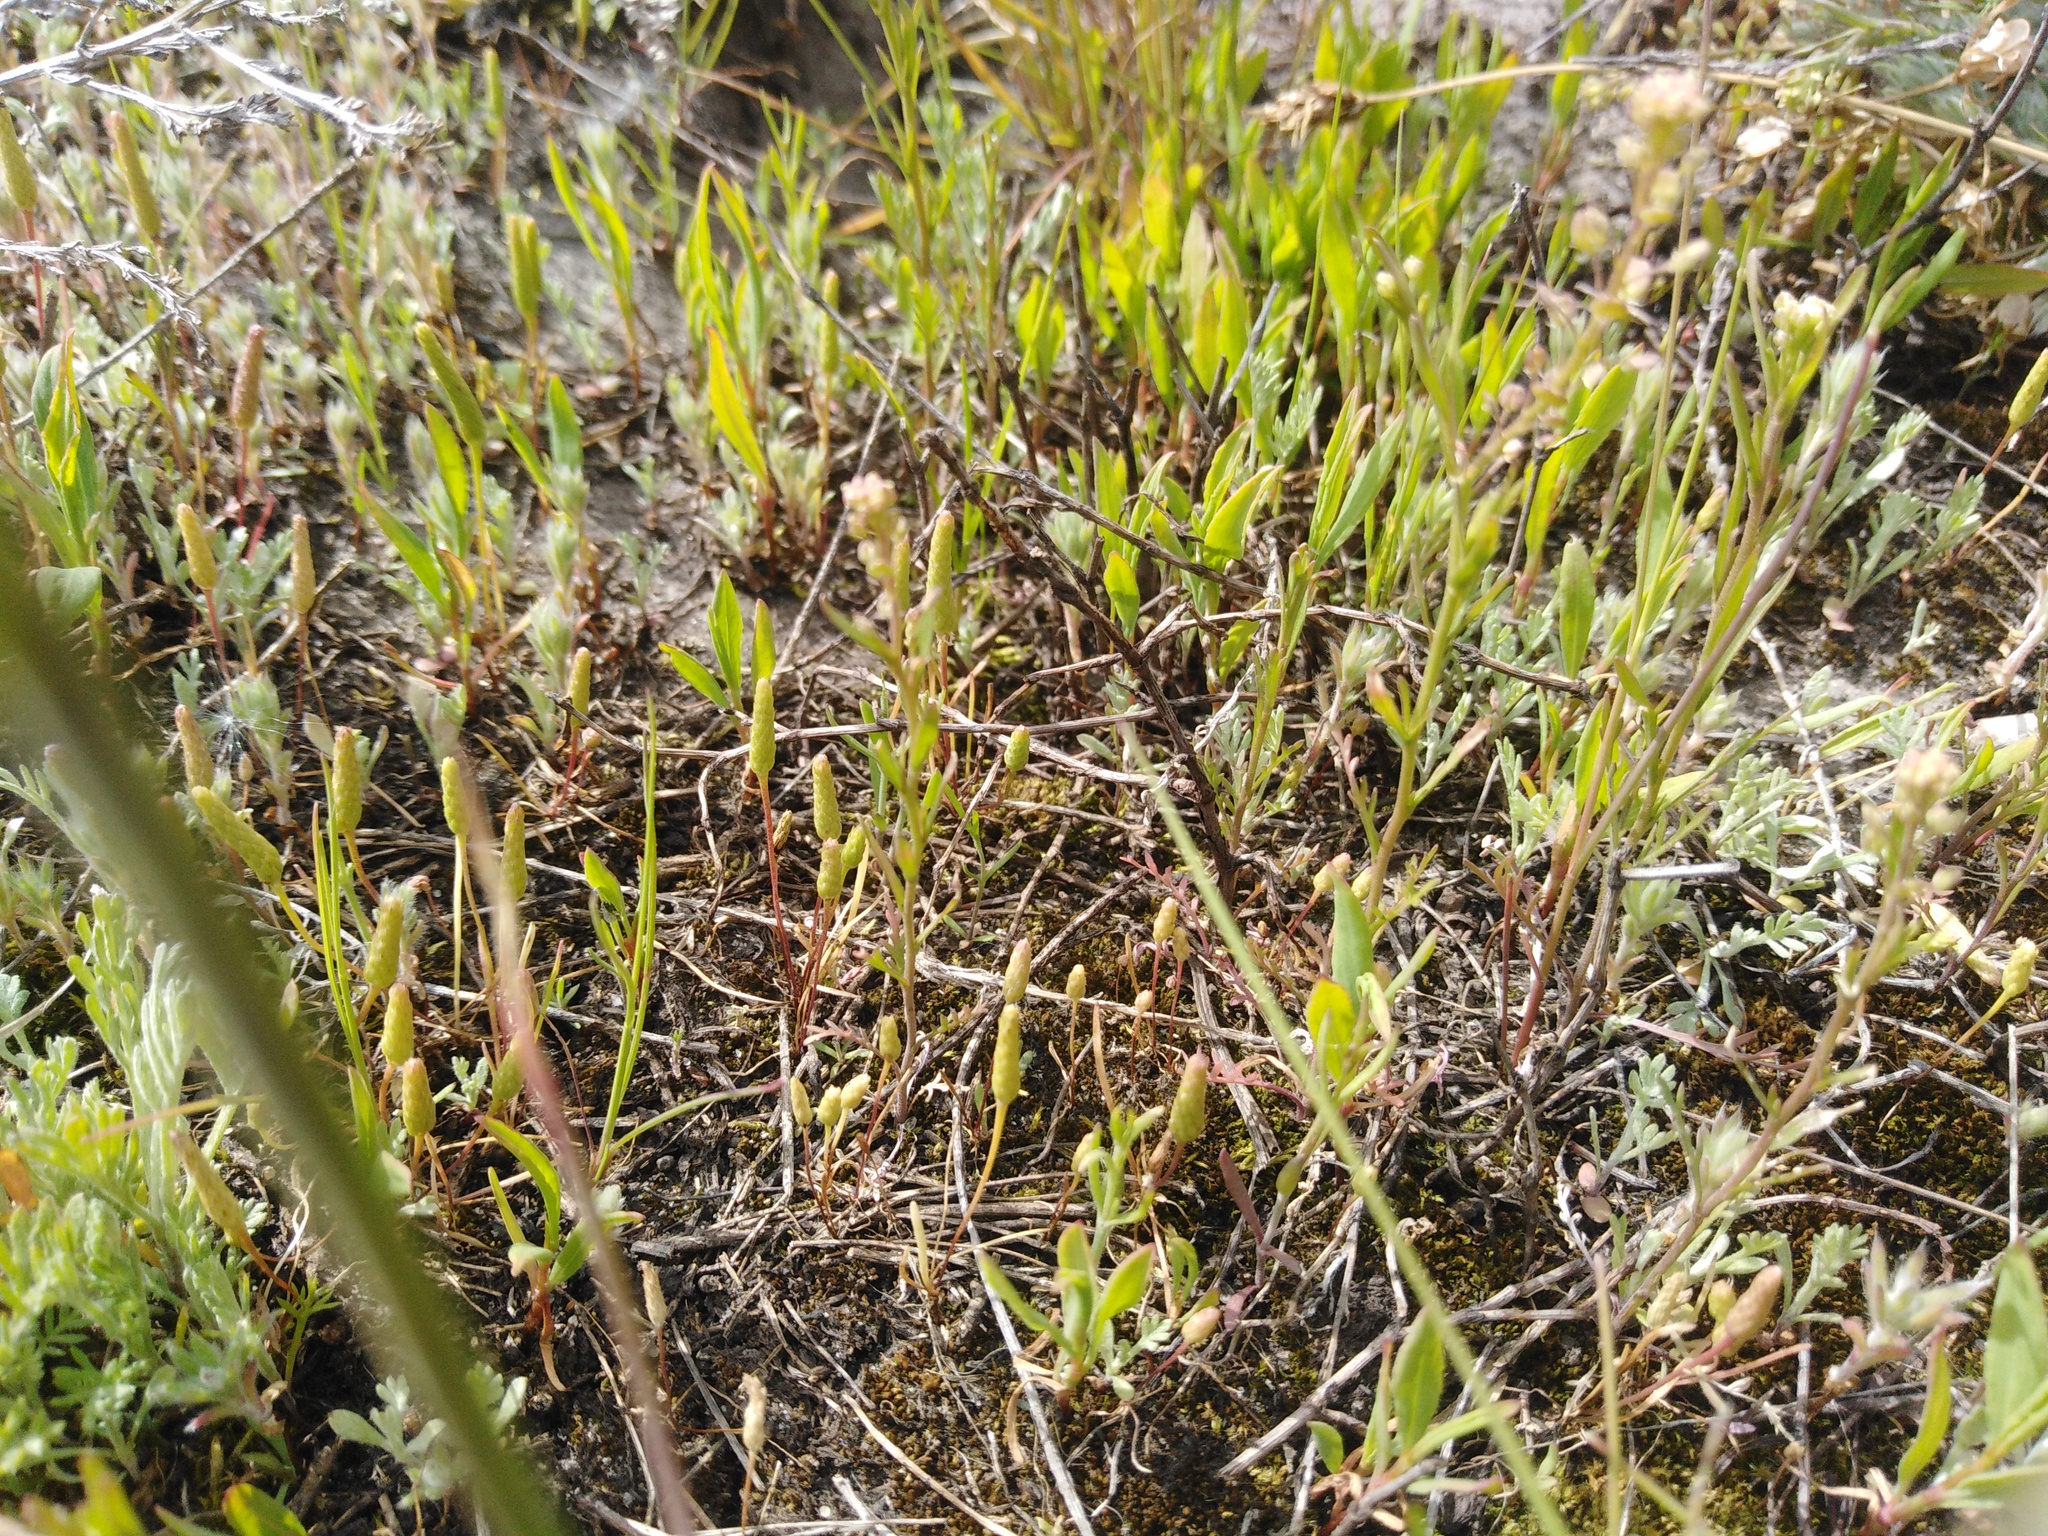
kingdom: Plantae
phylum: Tracheophyta
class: Magnoliopsida
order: Ranunculales
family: Ranunculaceae
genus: Myosurus
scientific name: Myosurus minimus
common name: Mousetail
